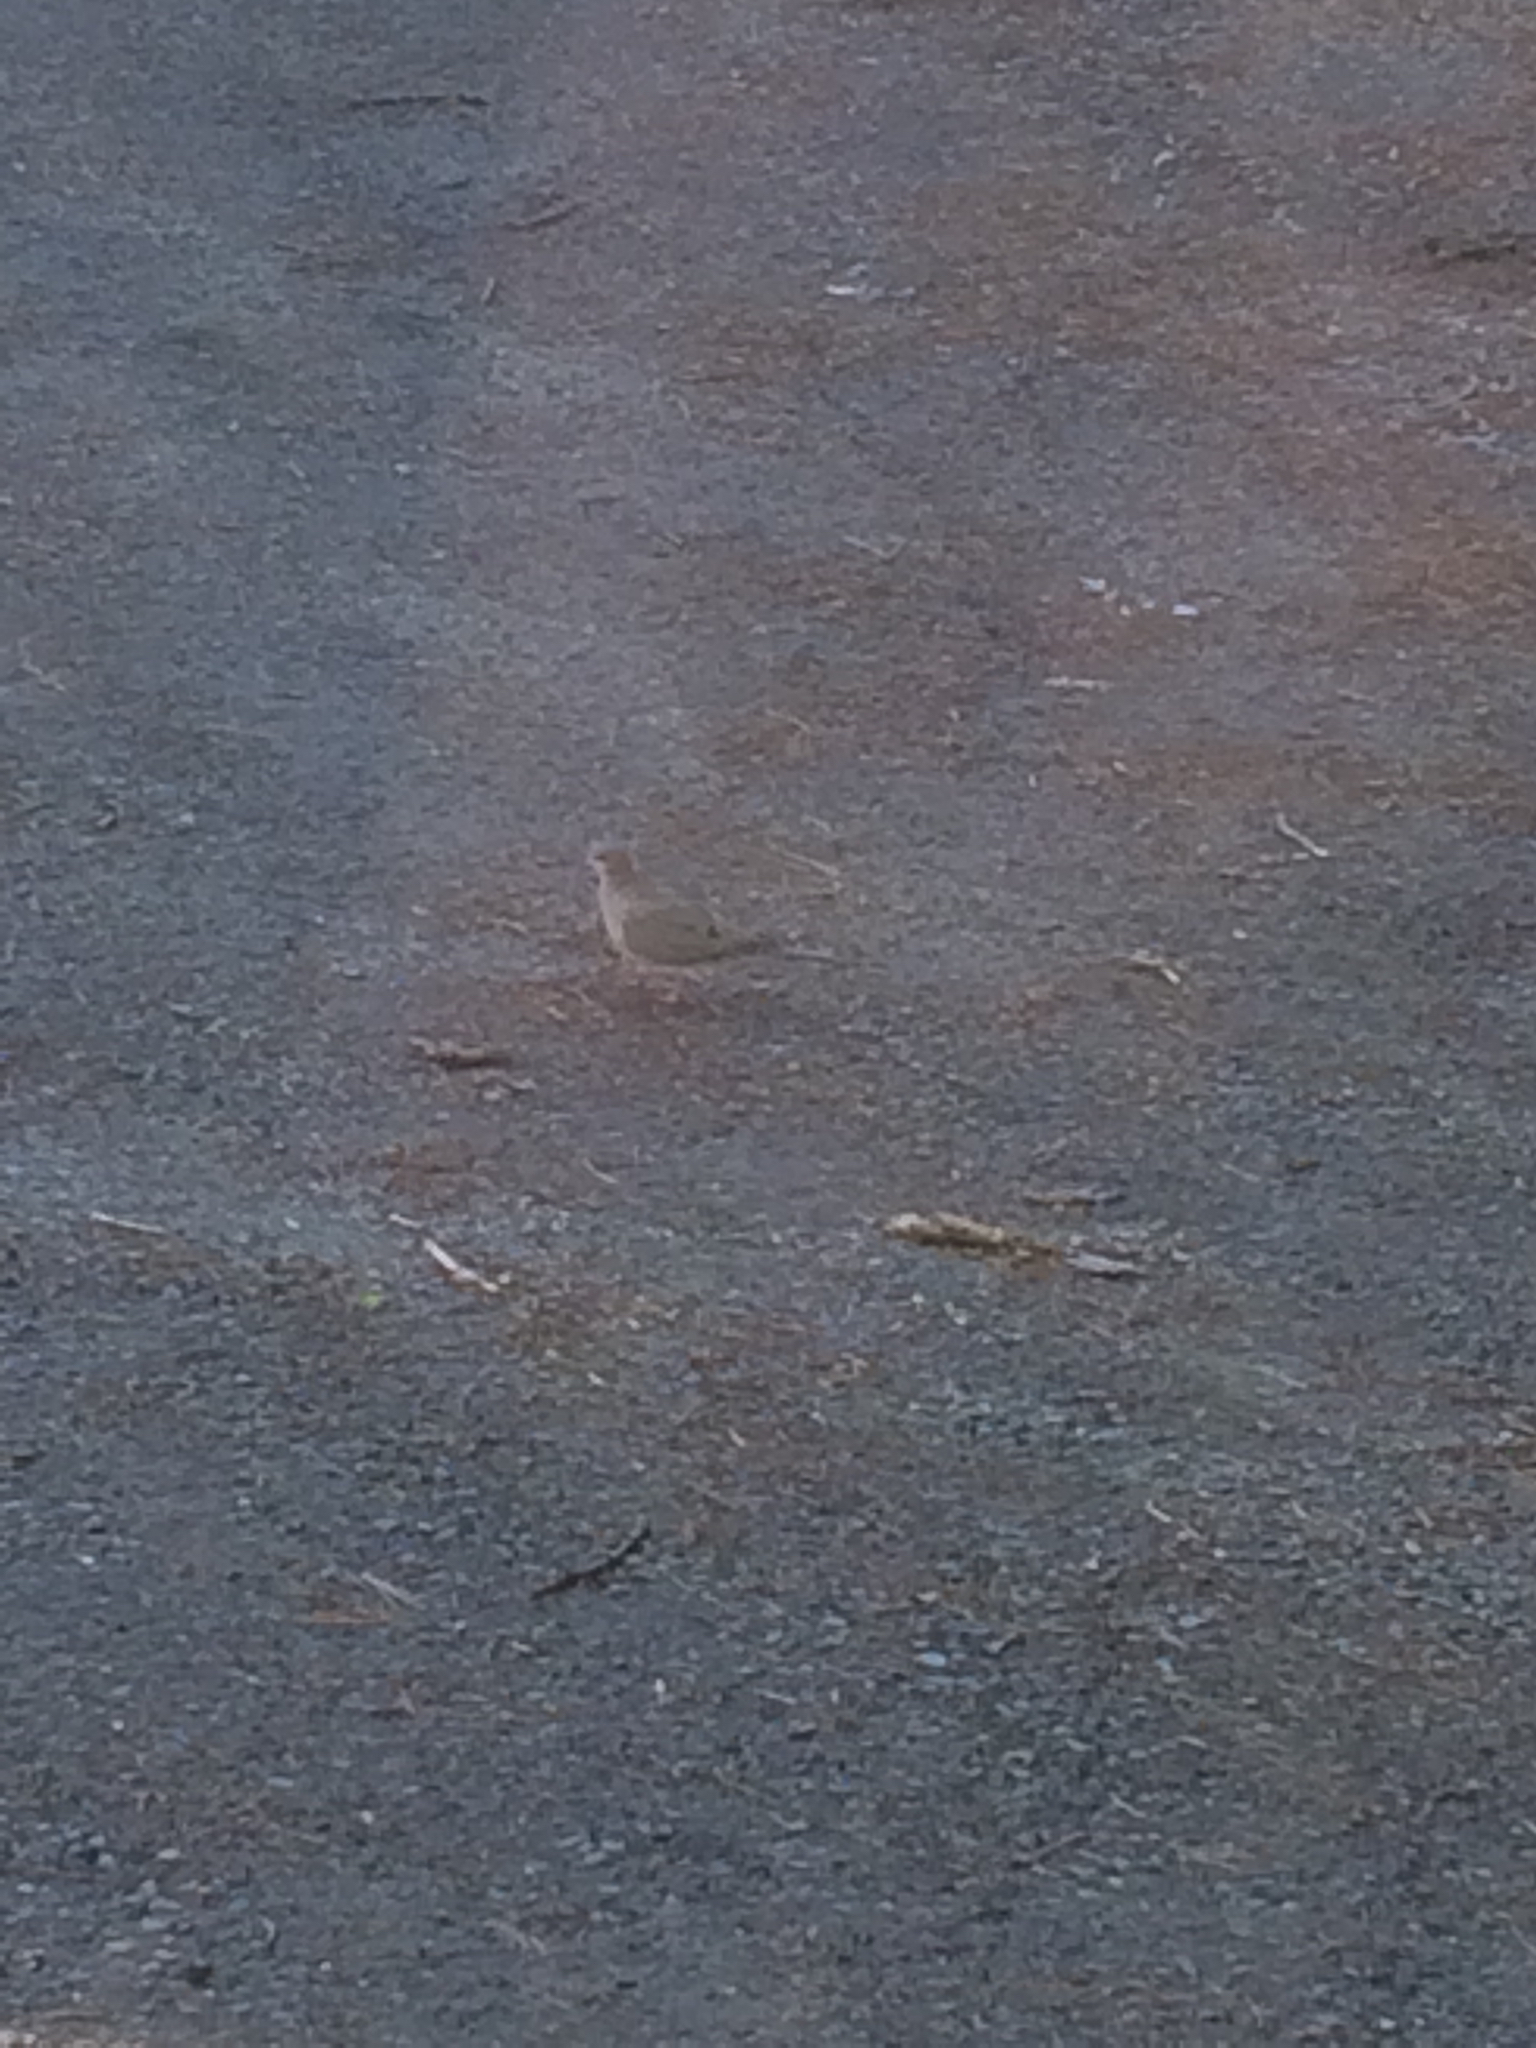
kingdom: Animalia
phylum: Chordata
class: Aves
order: Columbiformes
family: Columbidae
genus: Zenaida
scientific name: Zenaida macroura
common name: Mourning dove
